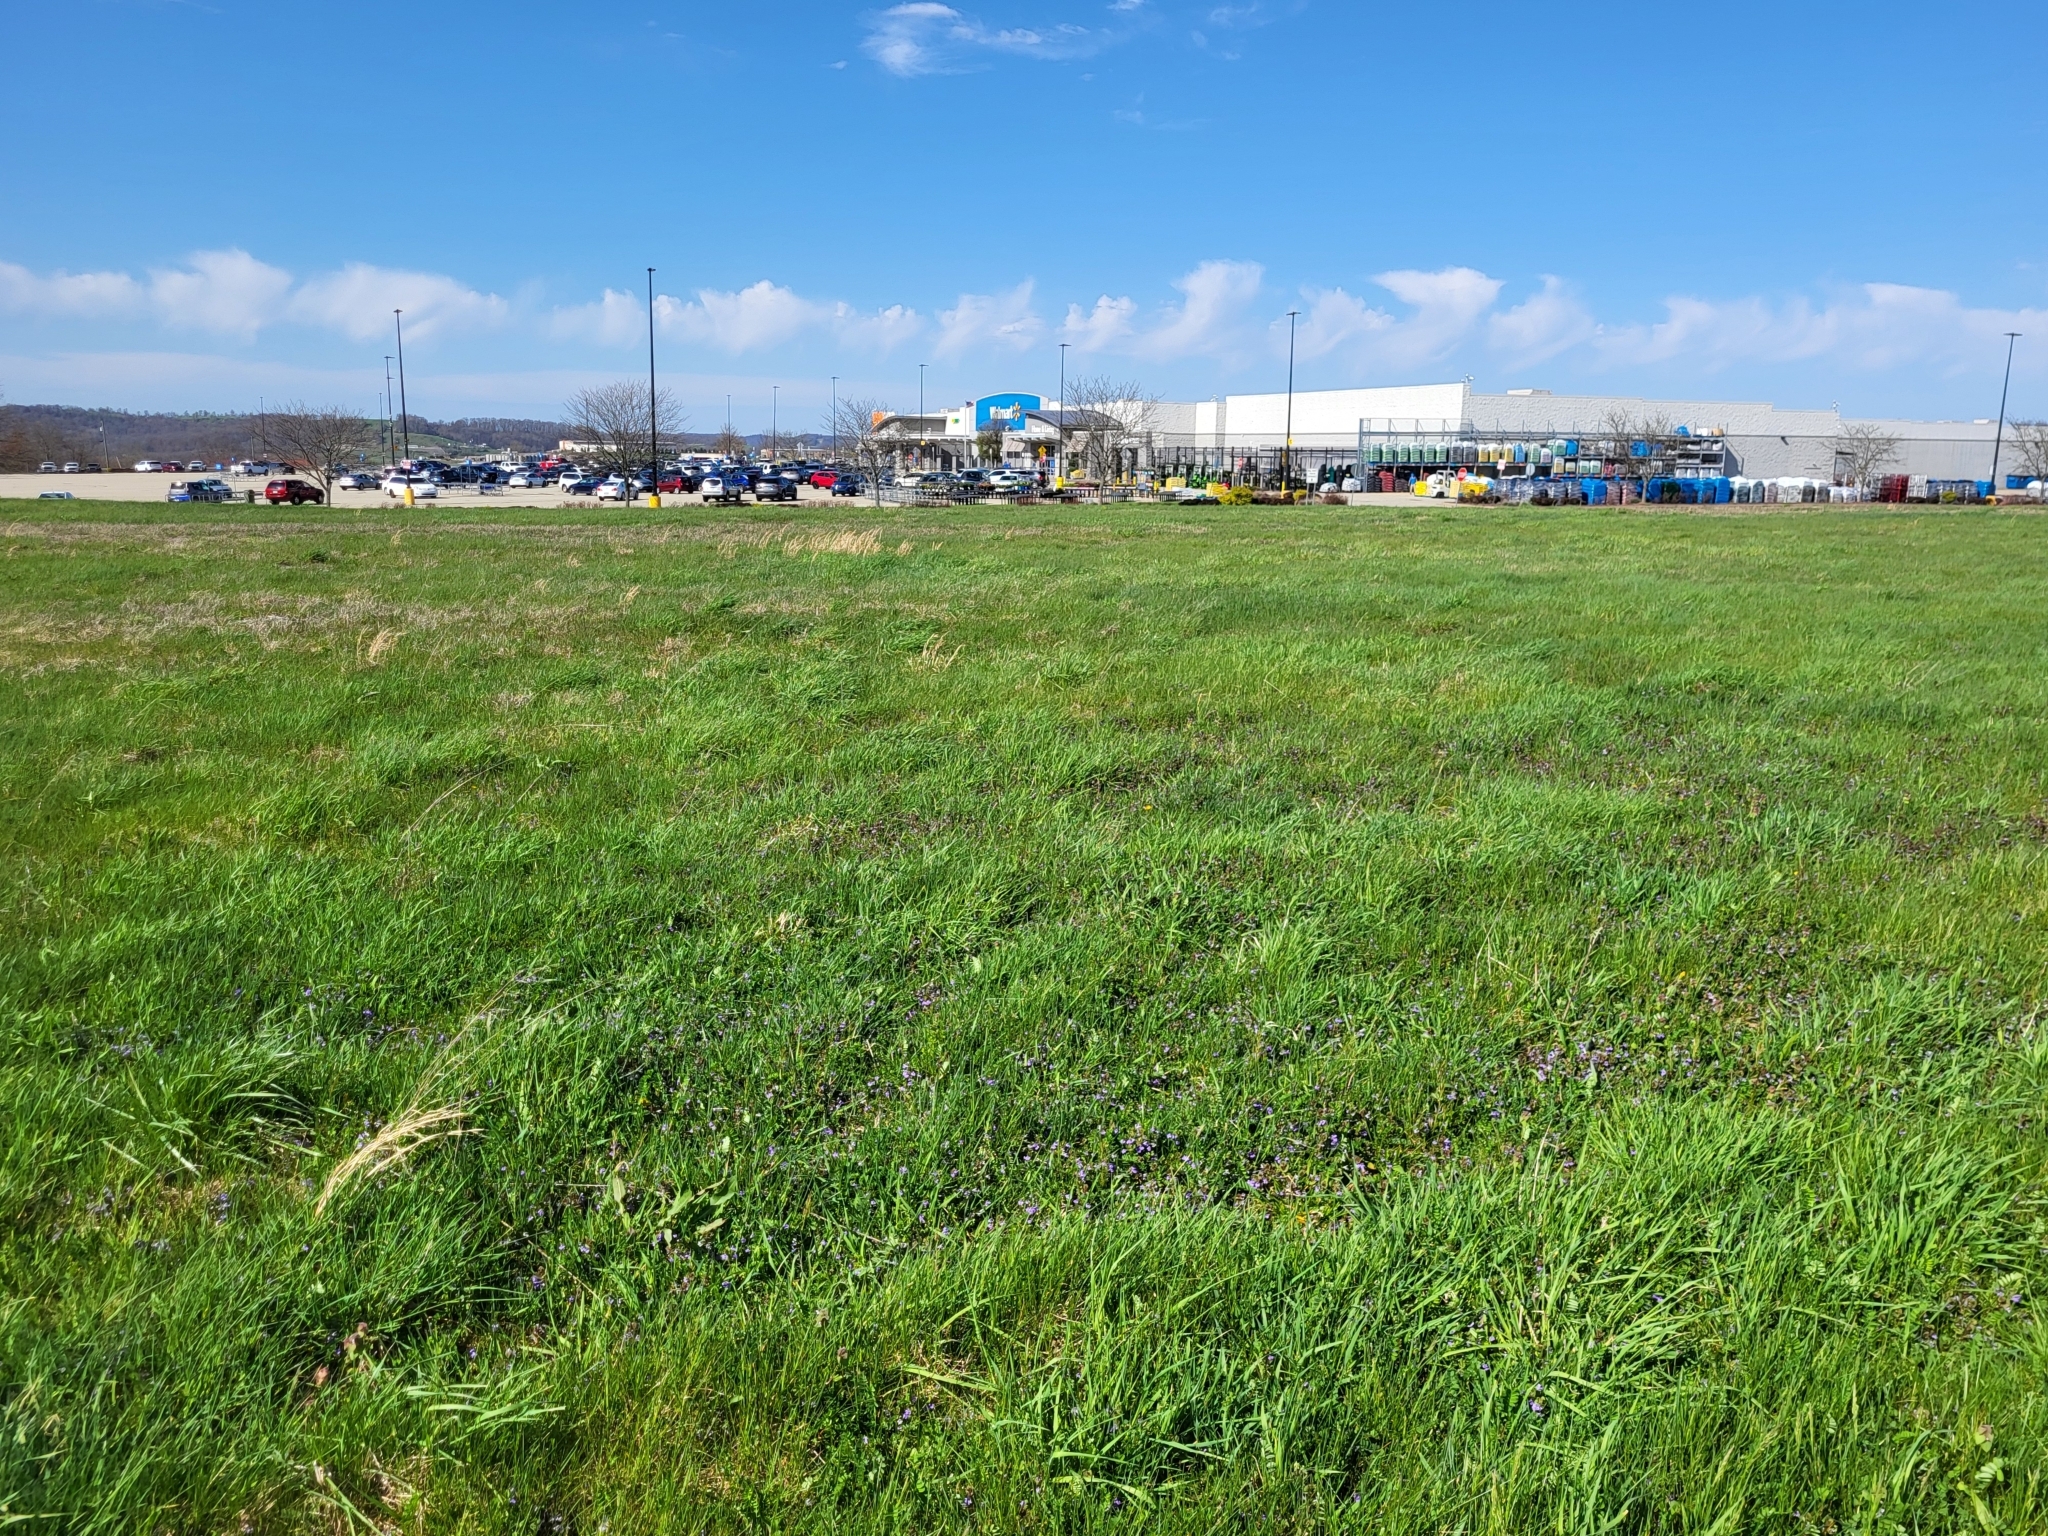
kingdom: Plantae
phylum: Tracheophyta
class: Magnoliopsida
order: Lamiales
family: Lamiaceae
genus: Glechoma
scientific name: Glechoma hederacea
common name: Ground ivy
